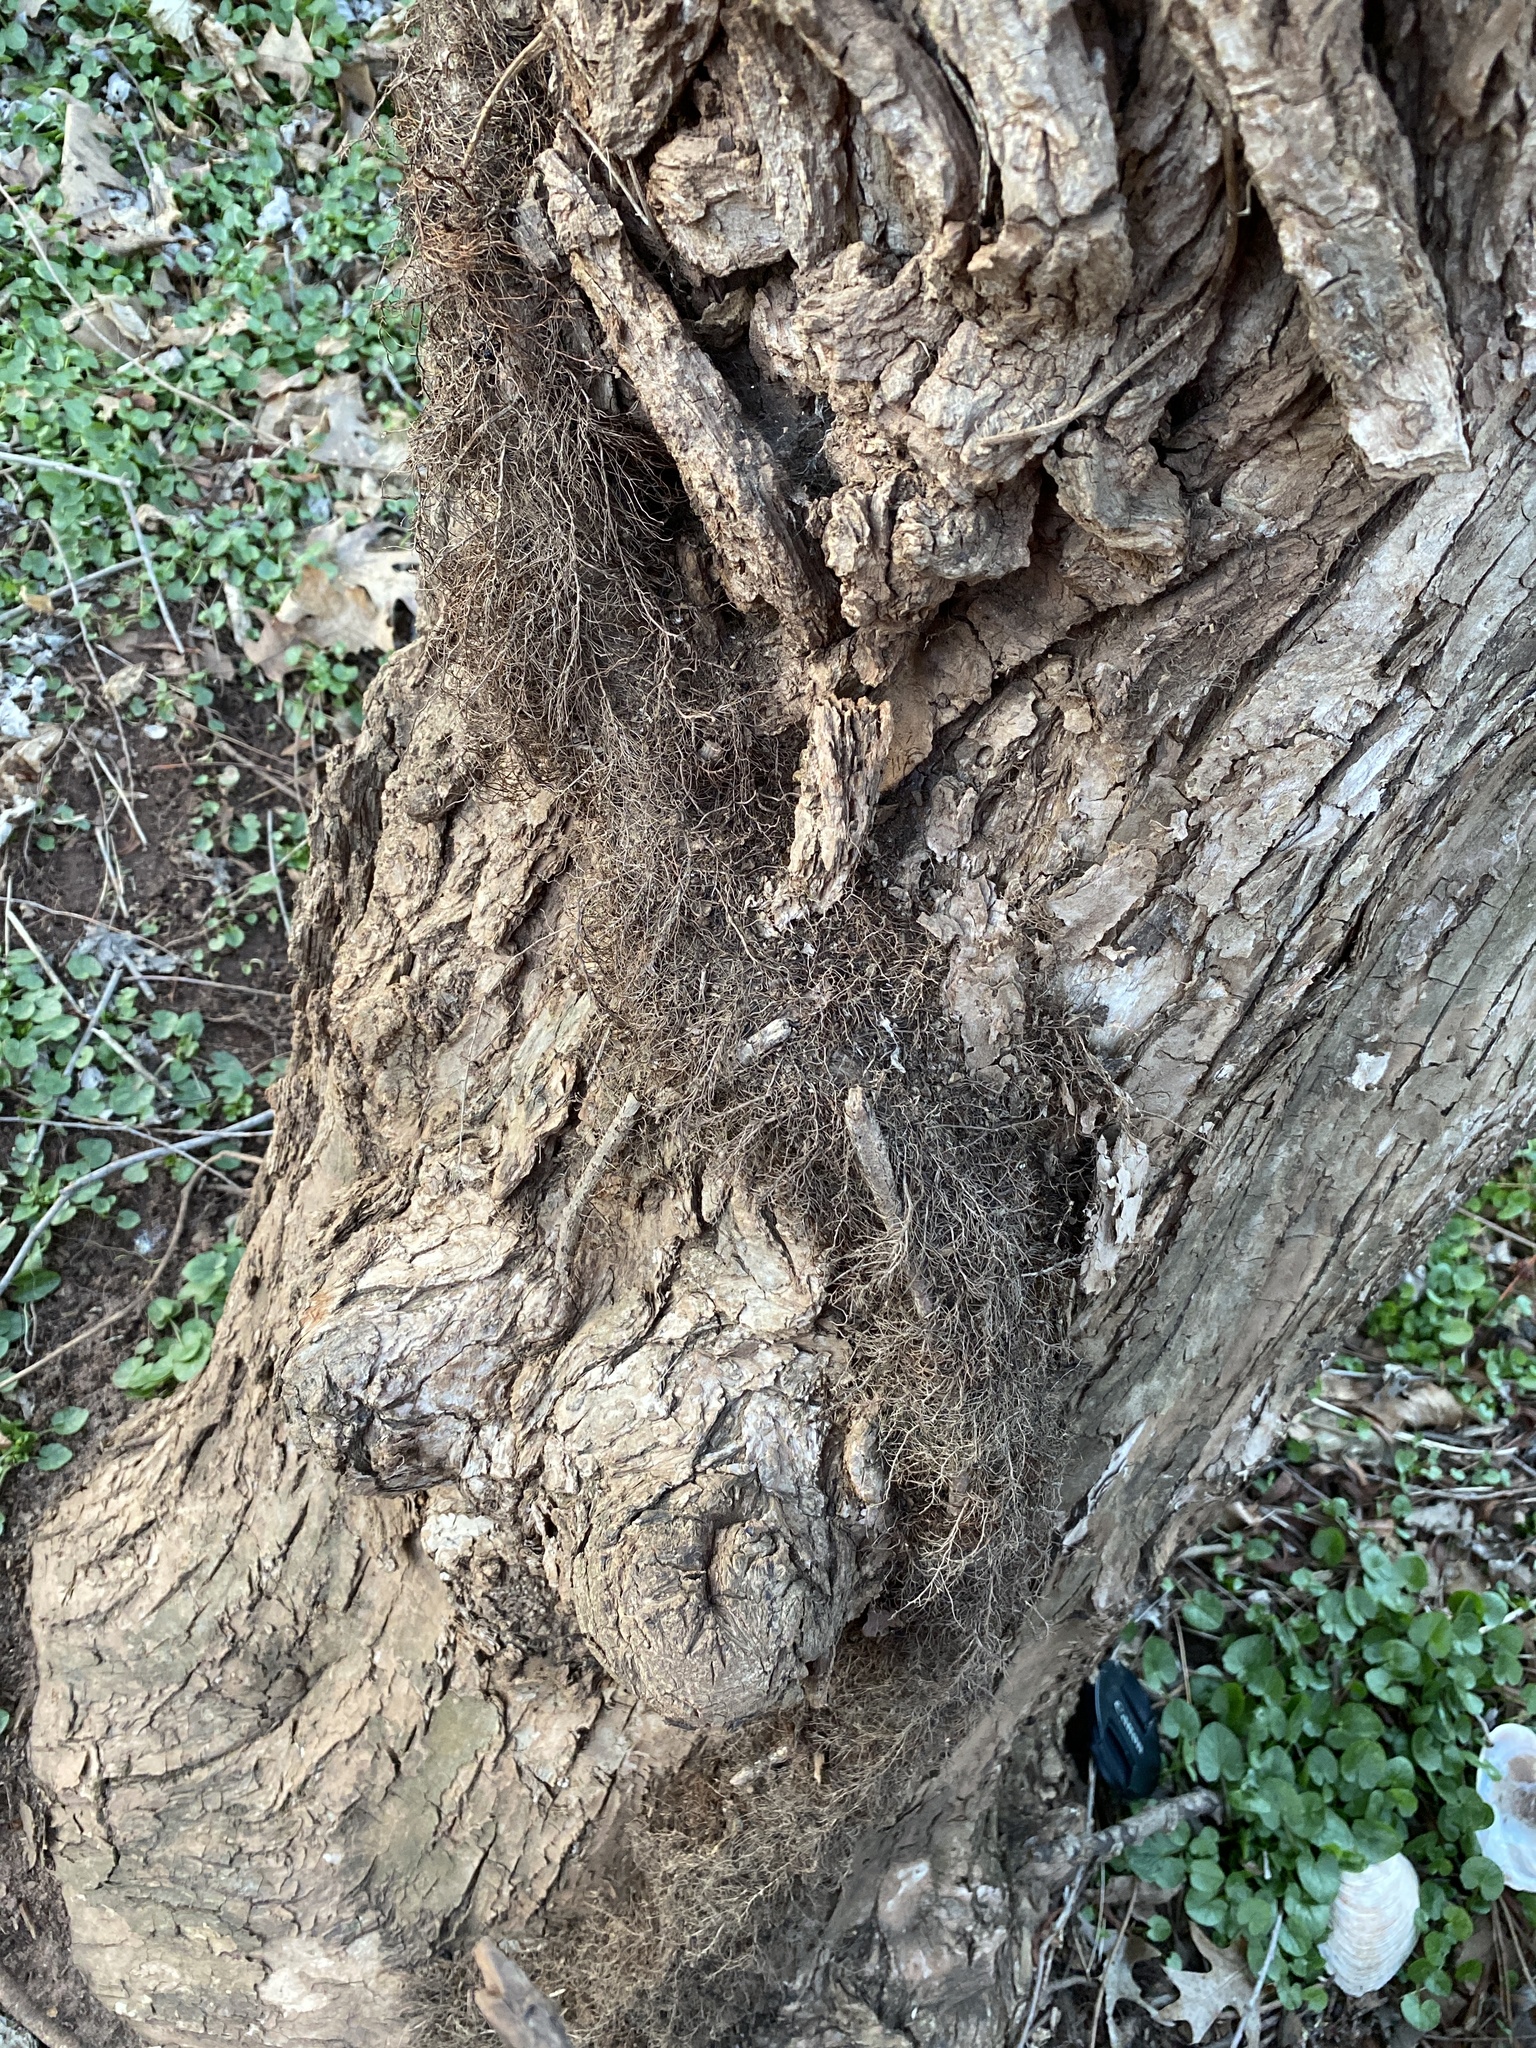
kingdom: Plantae
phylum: Tracheophyta
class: Magnoliopsida
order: Sapindales
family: Anacardiaceae
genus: Toxicodendron
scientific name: Toxicodendron radicans
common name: Poison ivy
